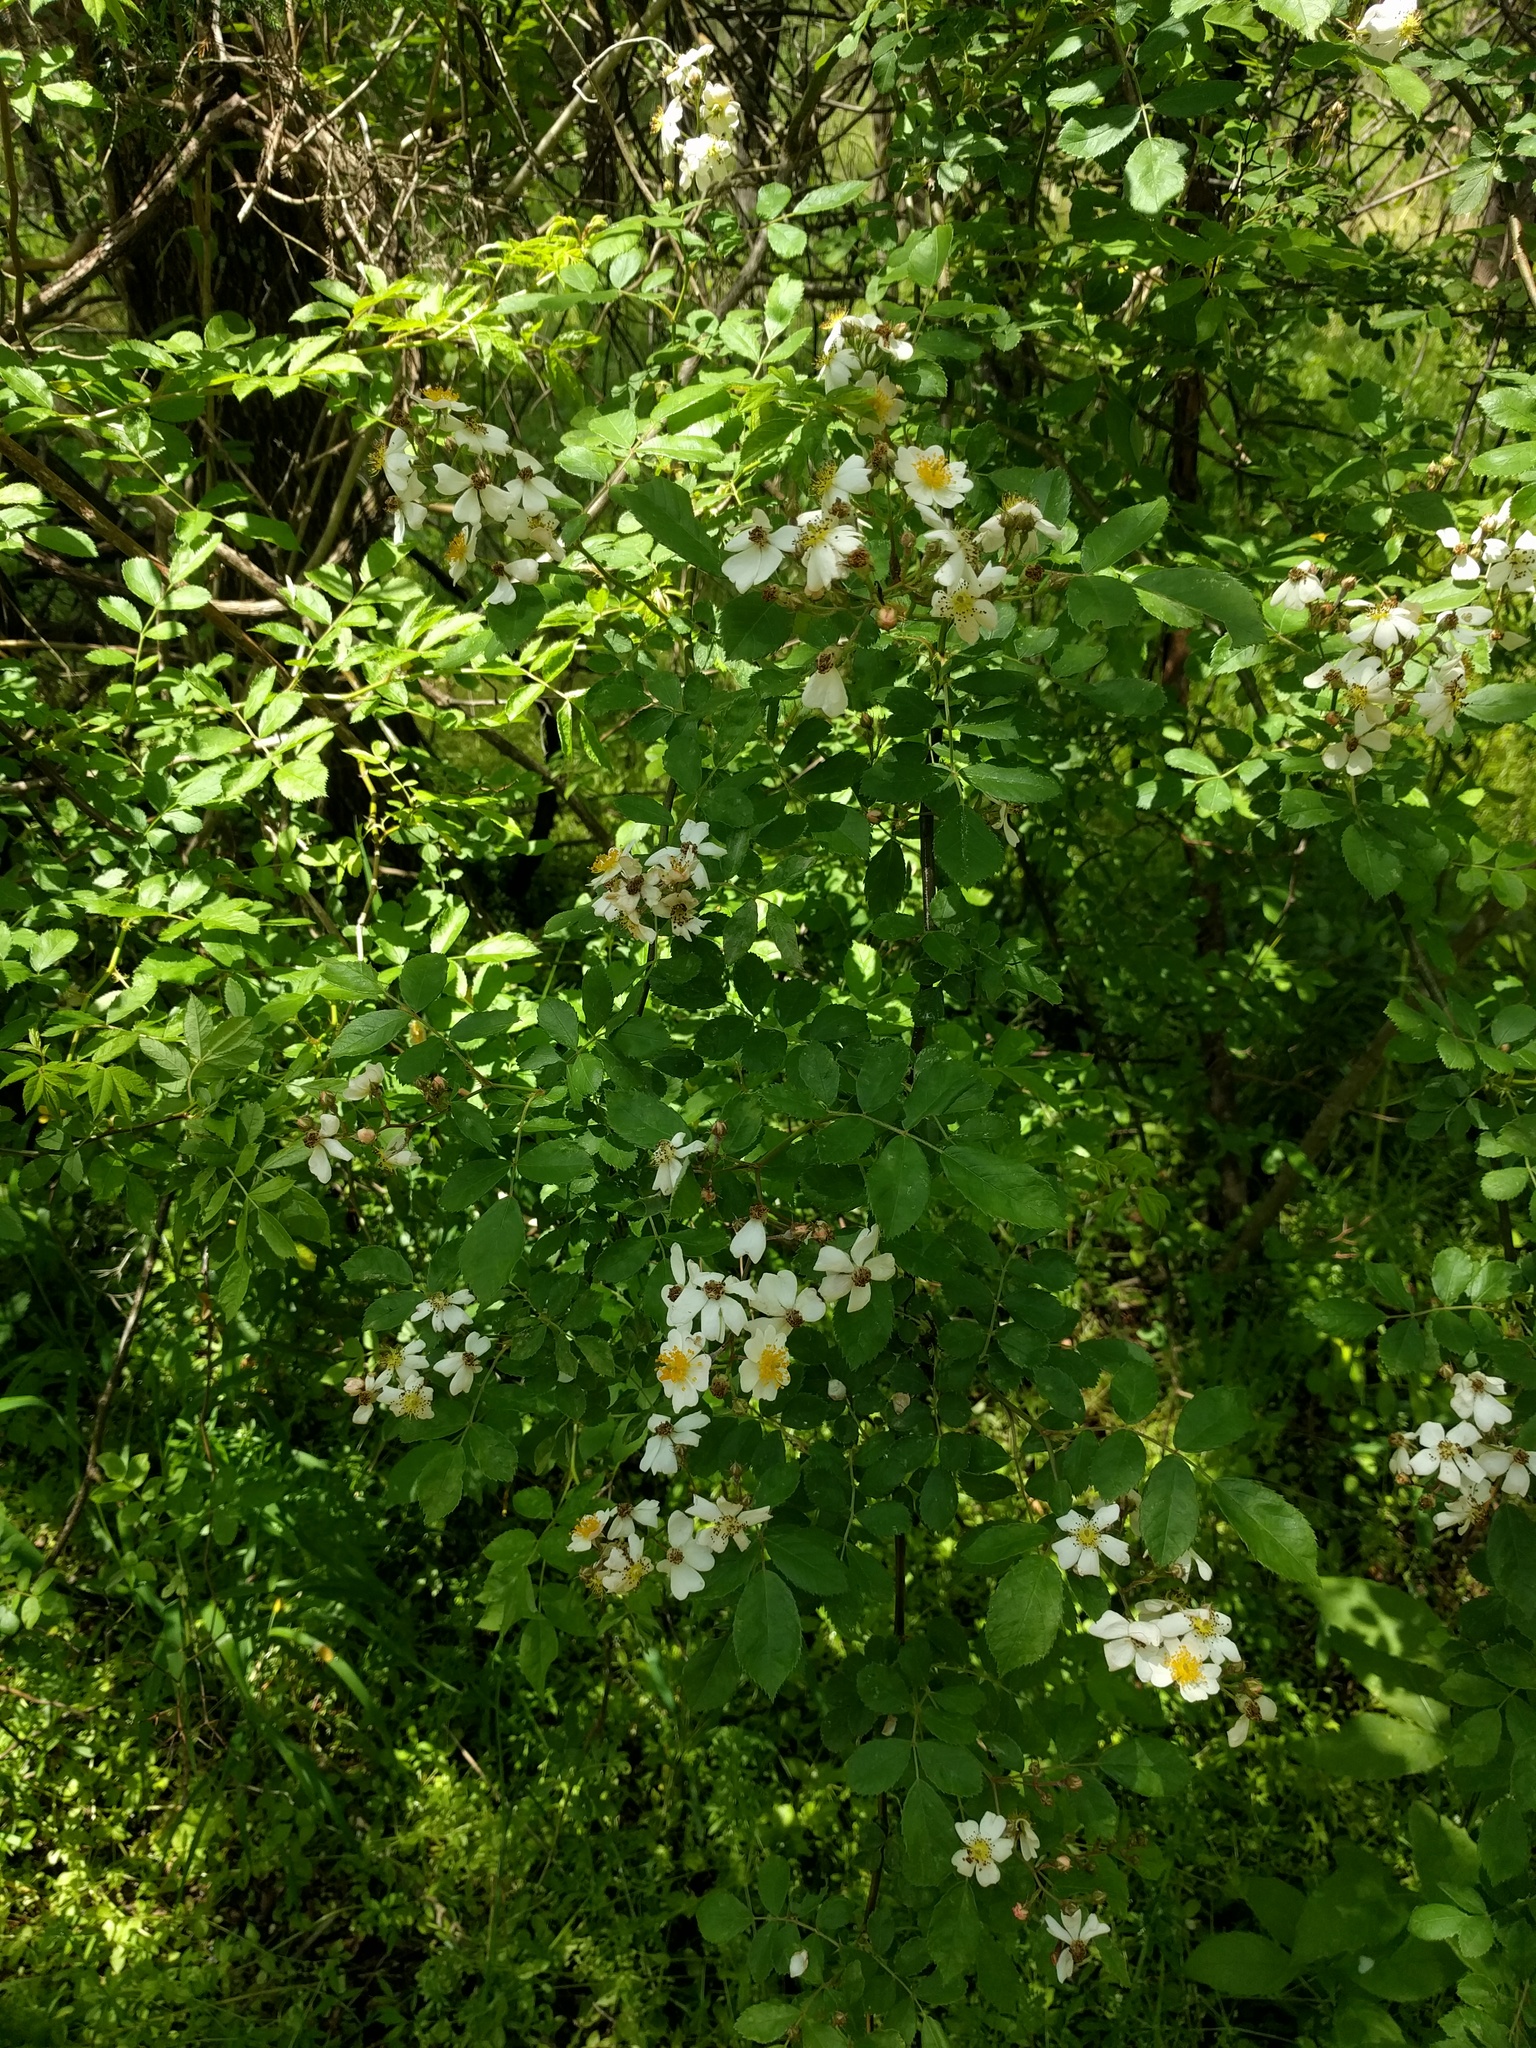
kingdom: Plantae
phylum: Tracheophyta
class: Magnoliopsida
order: Rosales
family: Rosaceae
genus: Rosa
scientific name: Rosa multiflora
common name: Multiflora rose
